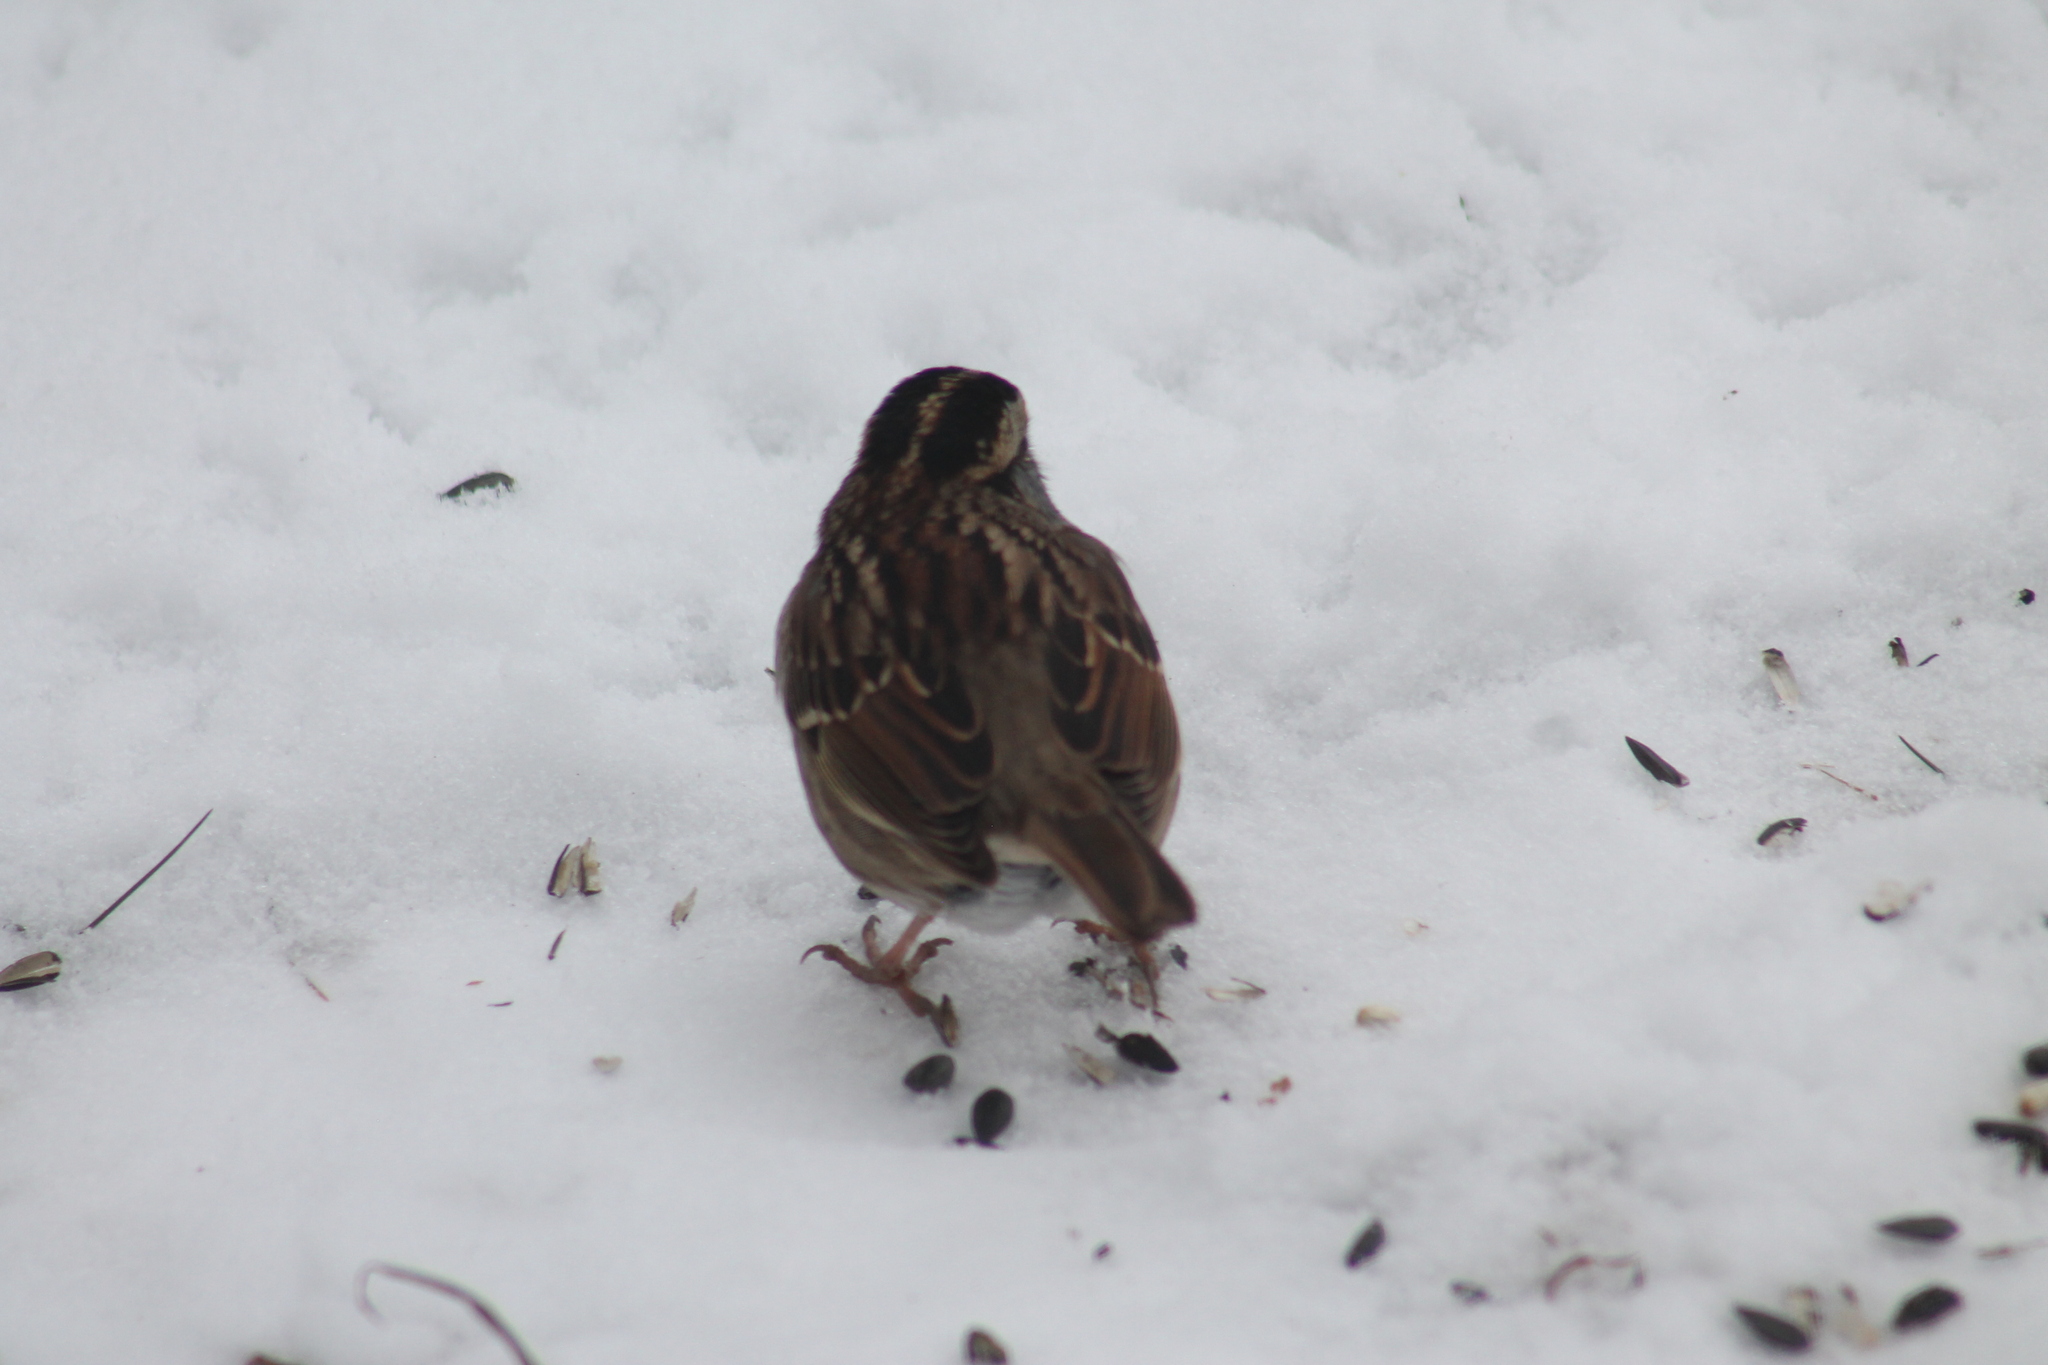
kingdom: Animalia
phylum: Chordata
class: Aves
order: Passeriformes
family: Passerellidae
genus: Zonotrichia
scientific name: Zonotrichia albicollis
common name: White-throated sparrow
